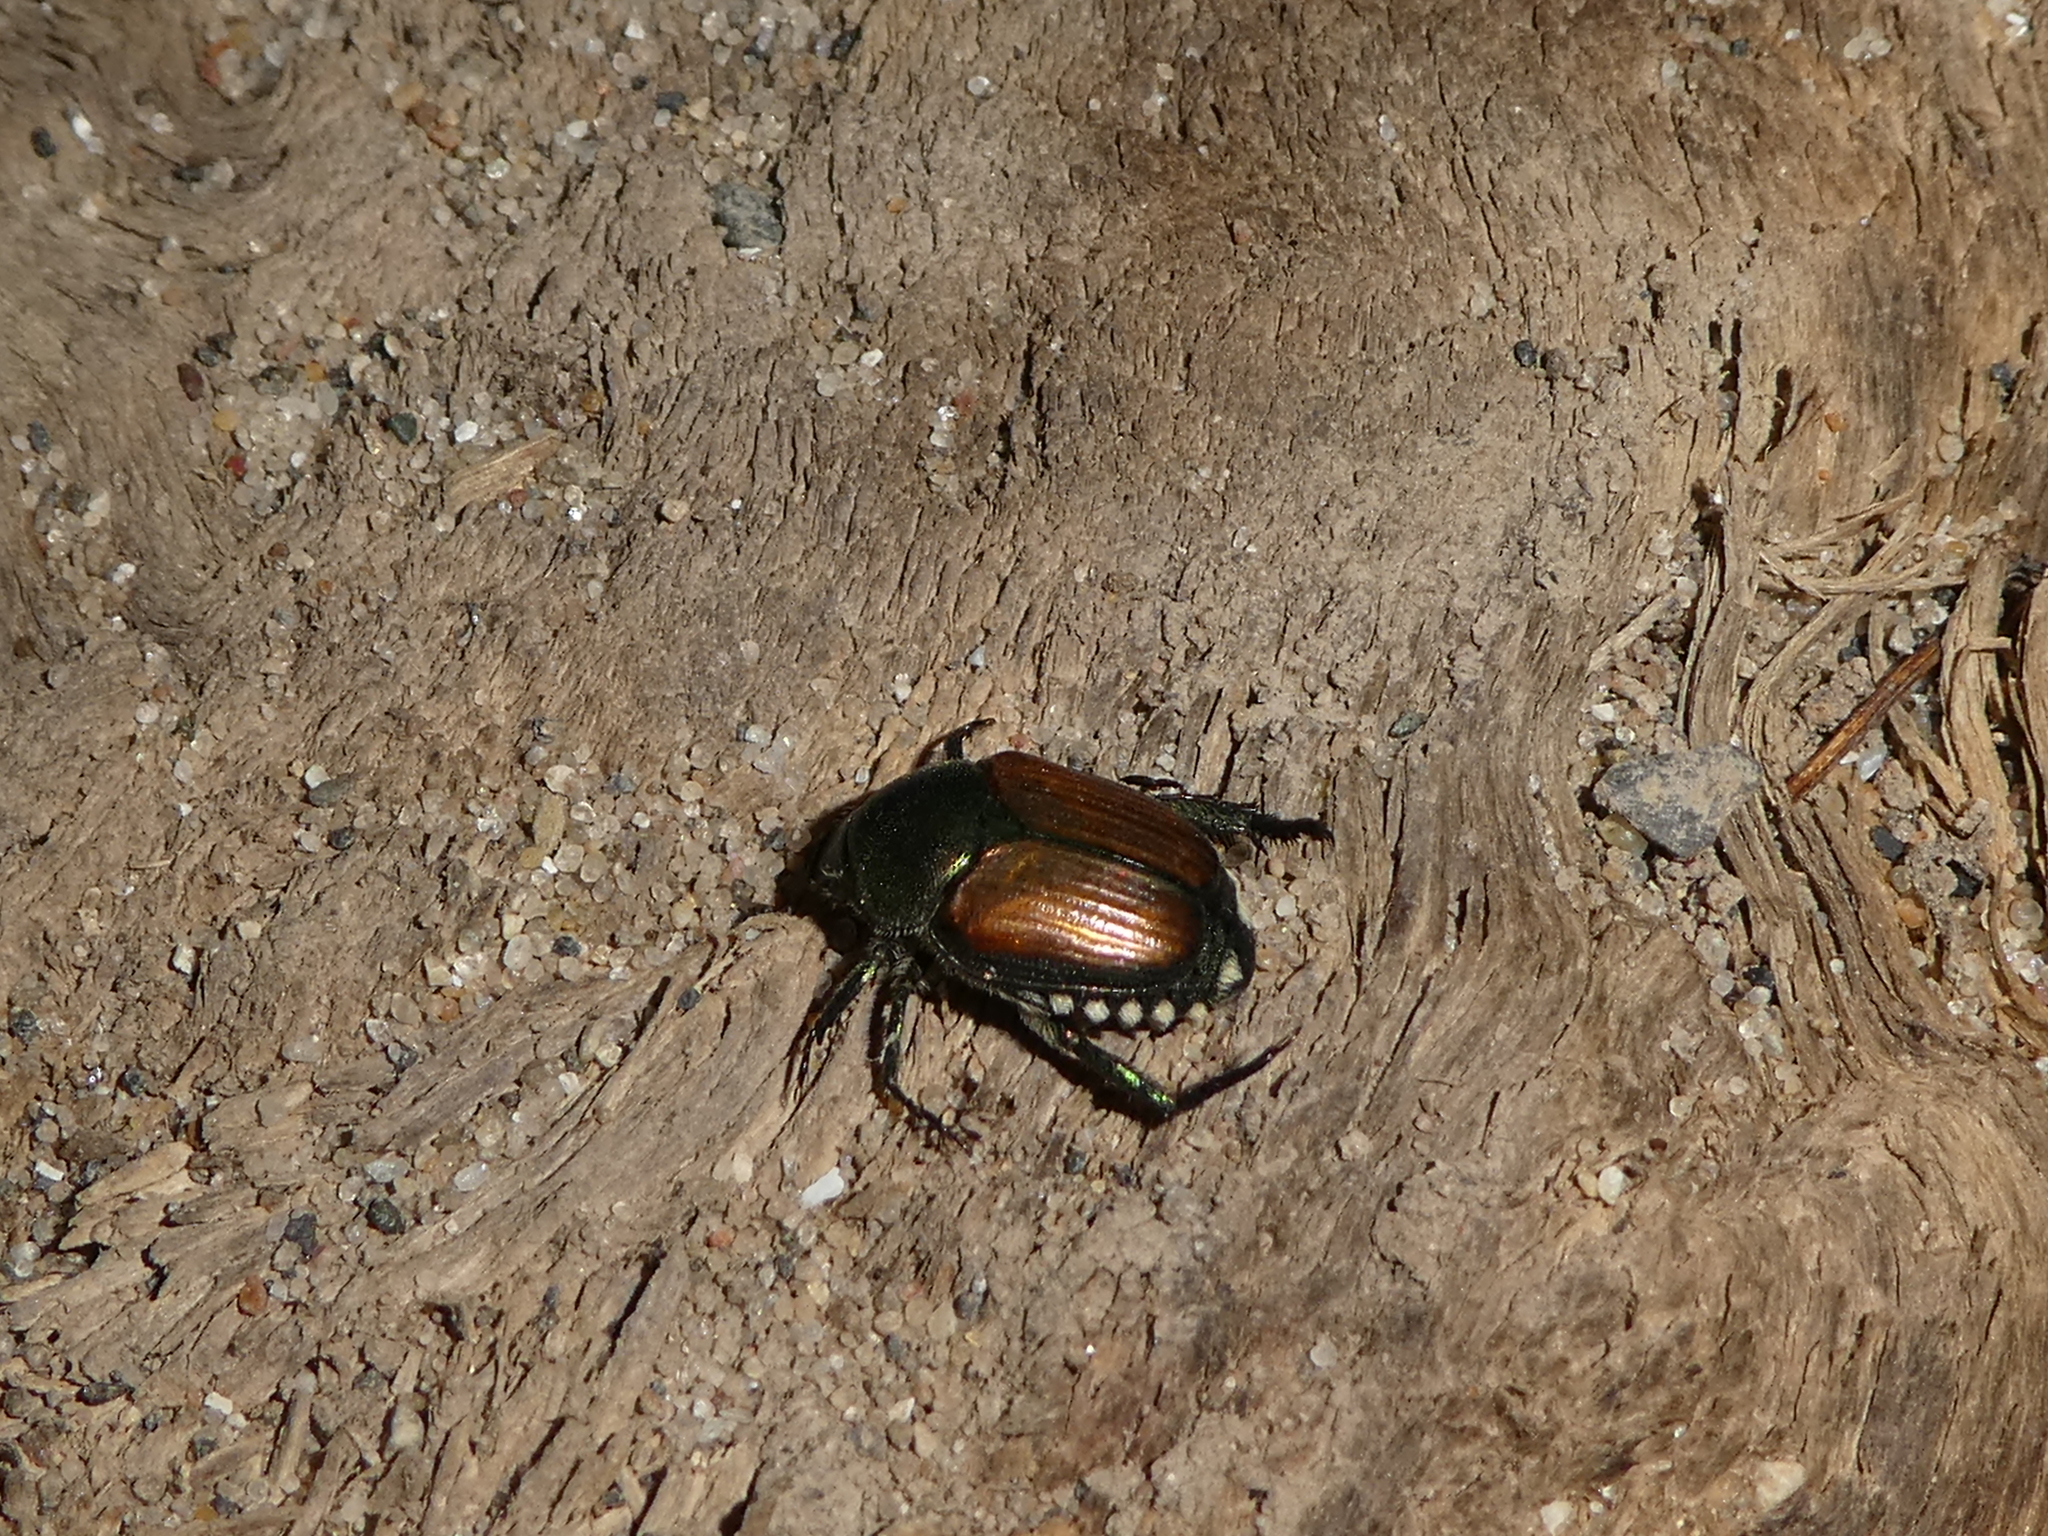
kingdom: Animalia
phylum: Arthropoda
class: Insecta
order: Coleoptera
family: Scarabaeidae
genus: Popillia
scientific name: Popillia japonica
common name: Japanese beetle
